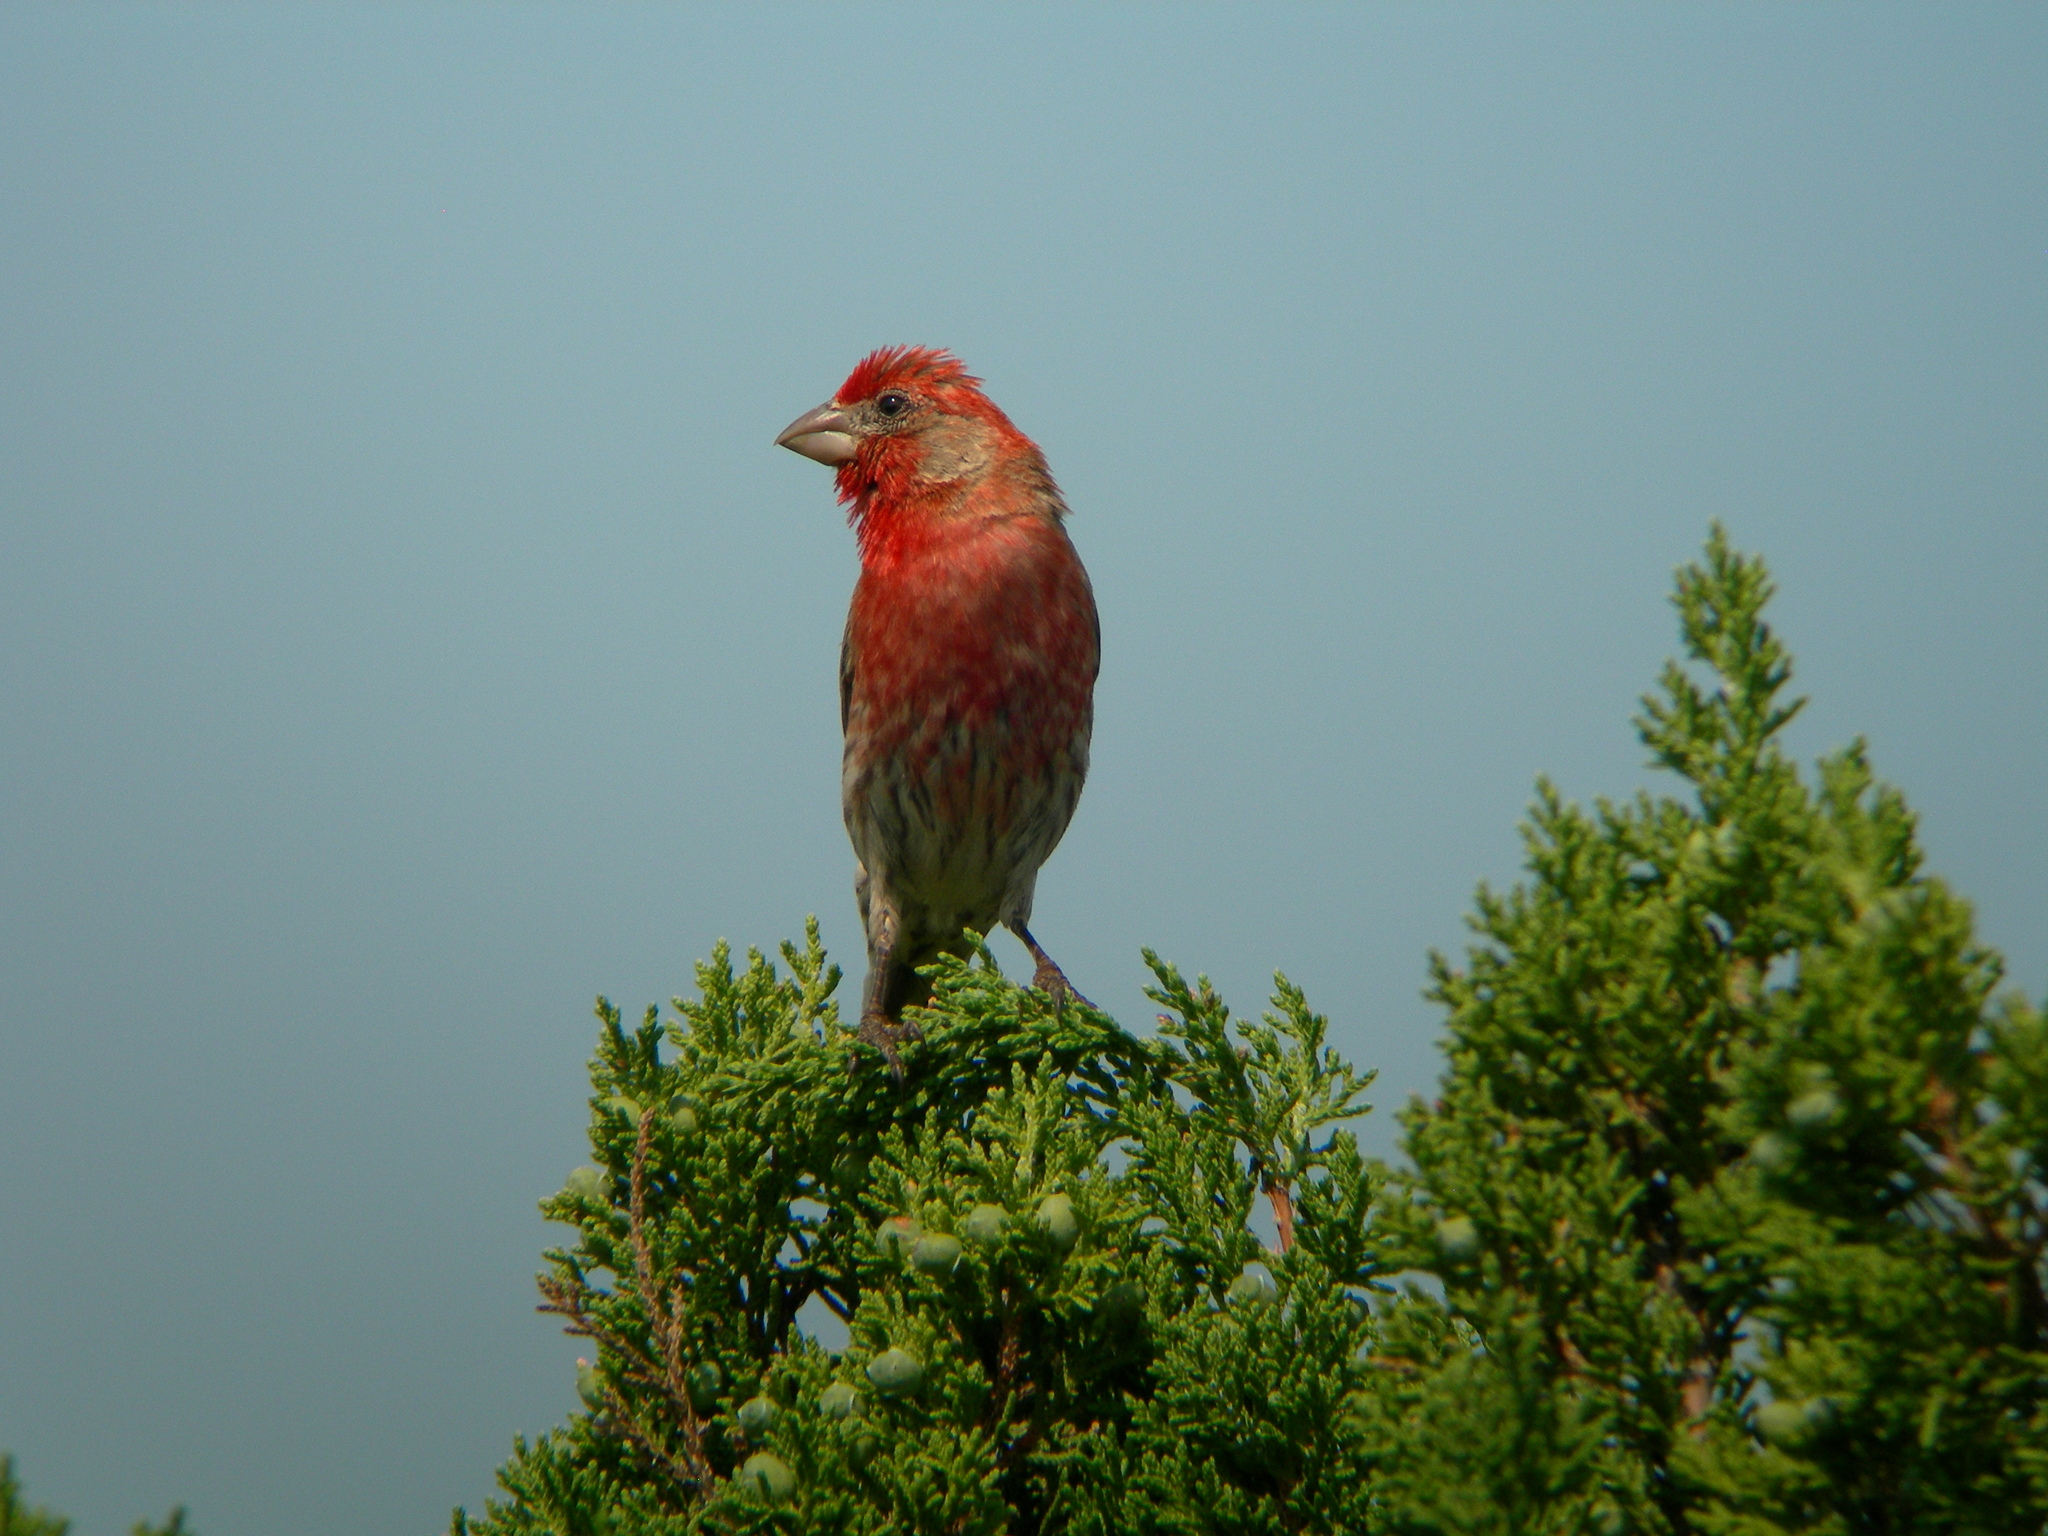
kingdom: Animalia
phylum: Chordata
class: Aves
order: Passeriformes
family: Fringillidae
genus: Haemorhous
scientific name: Haemorhous mexicanus
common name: House finch
